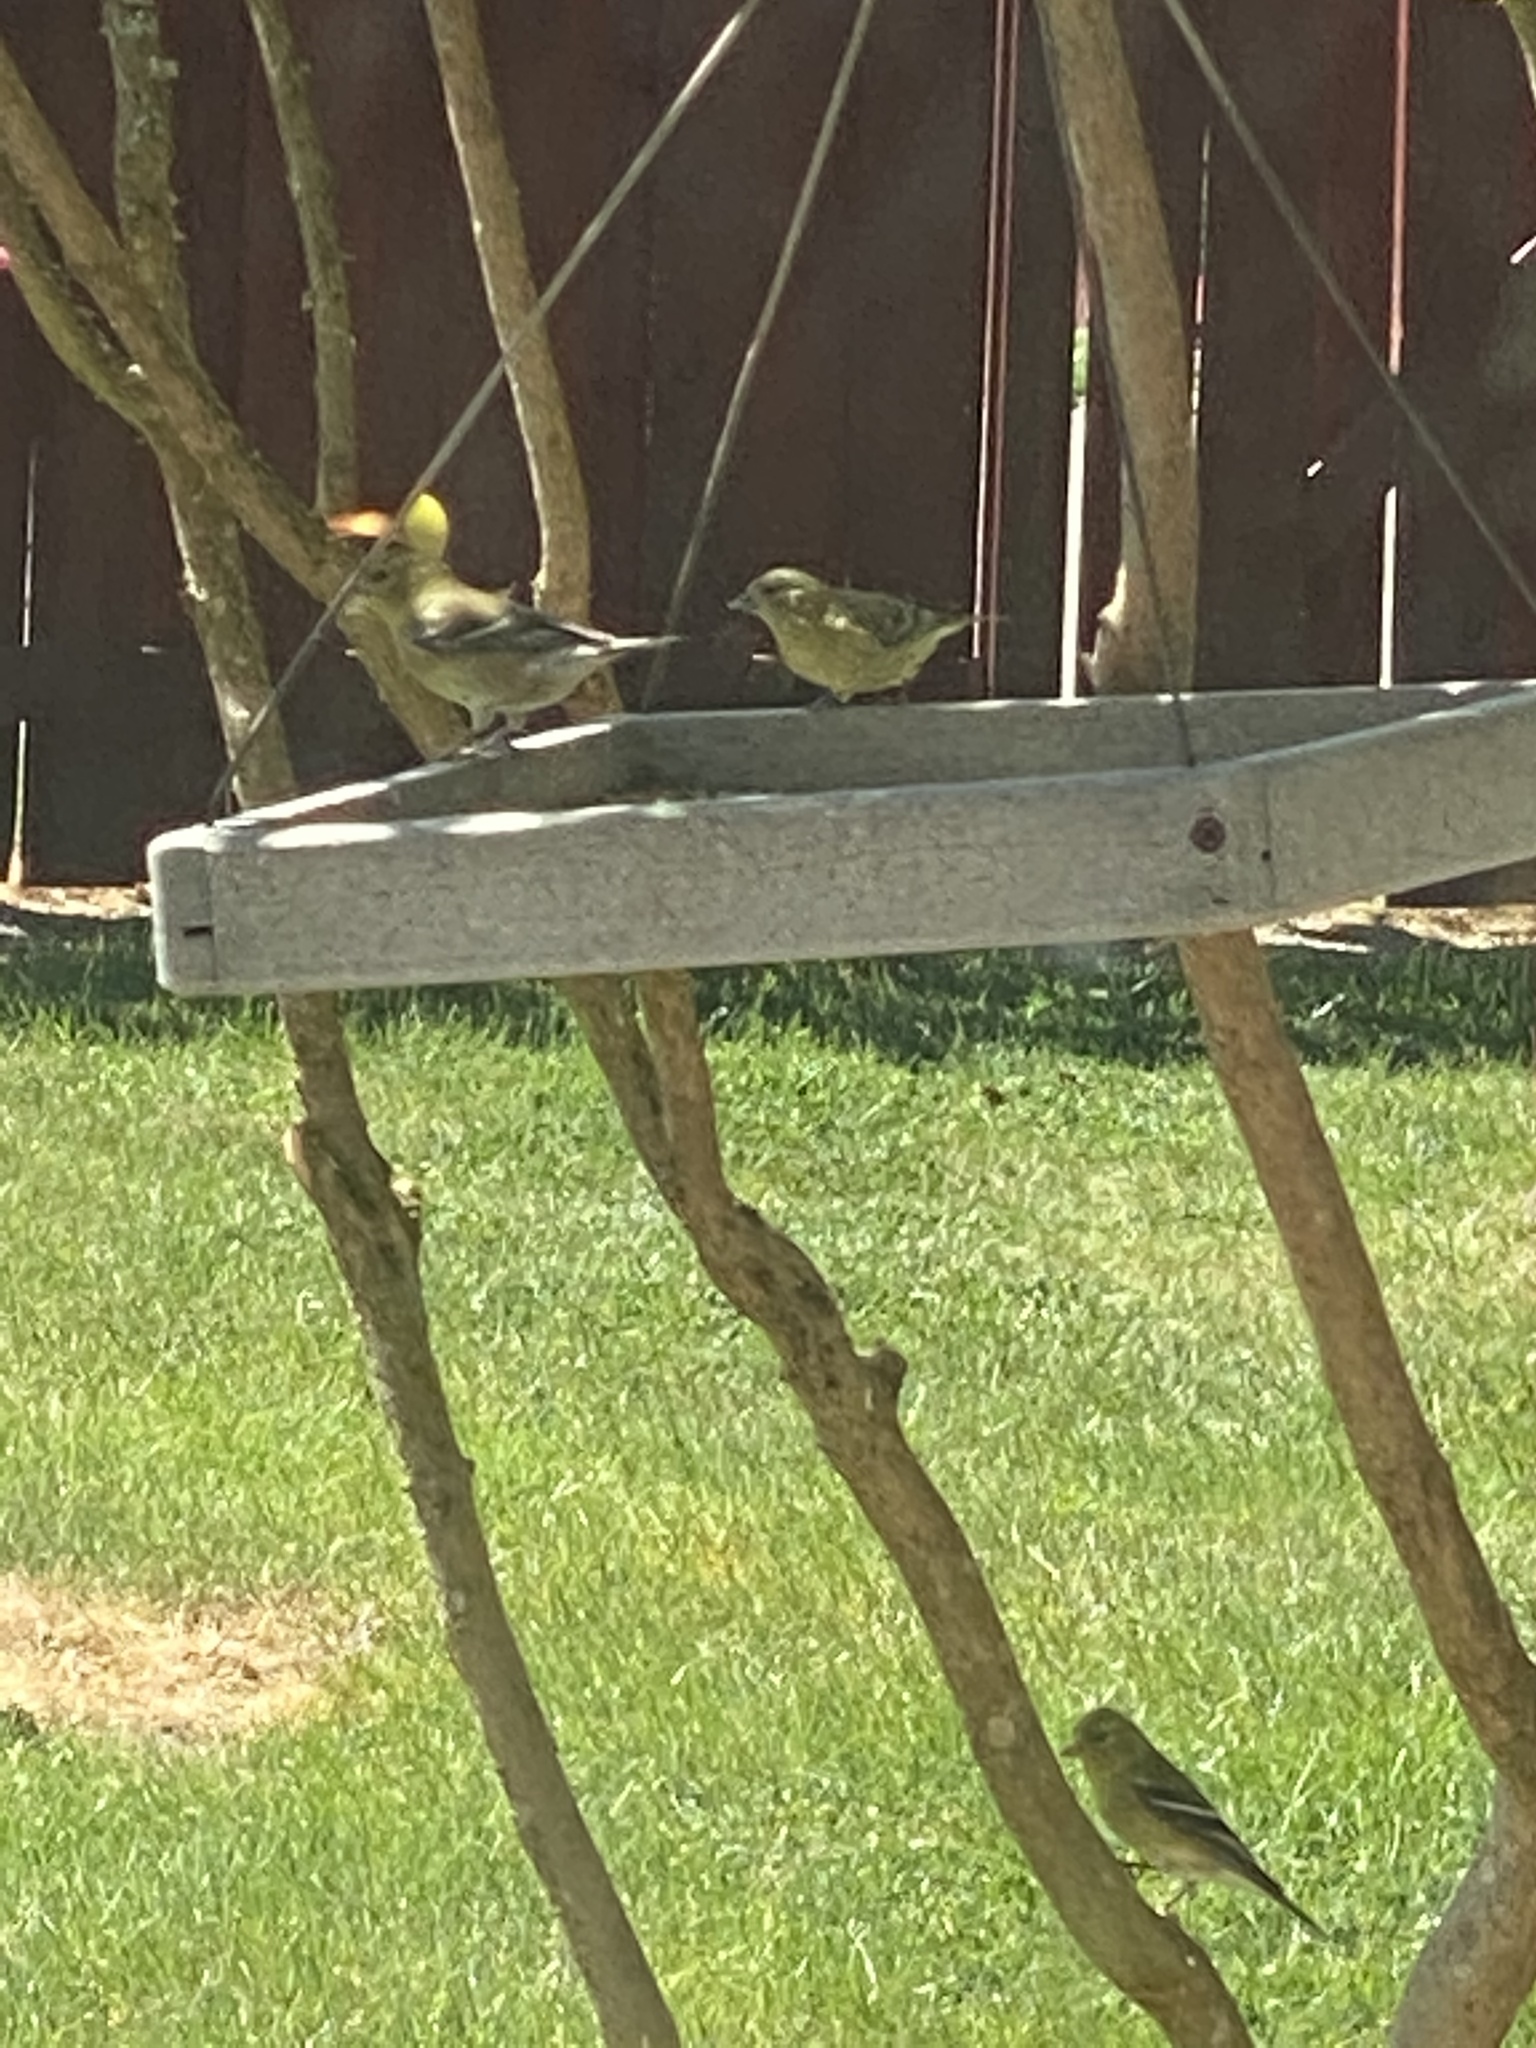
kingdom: Animalia
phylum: Chordata
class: Aves
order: Passeriformes
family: Fringillidae
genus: Spinus
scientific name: Spinus tristis
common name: American goldfinch
